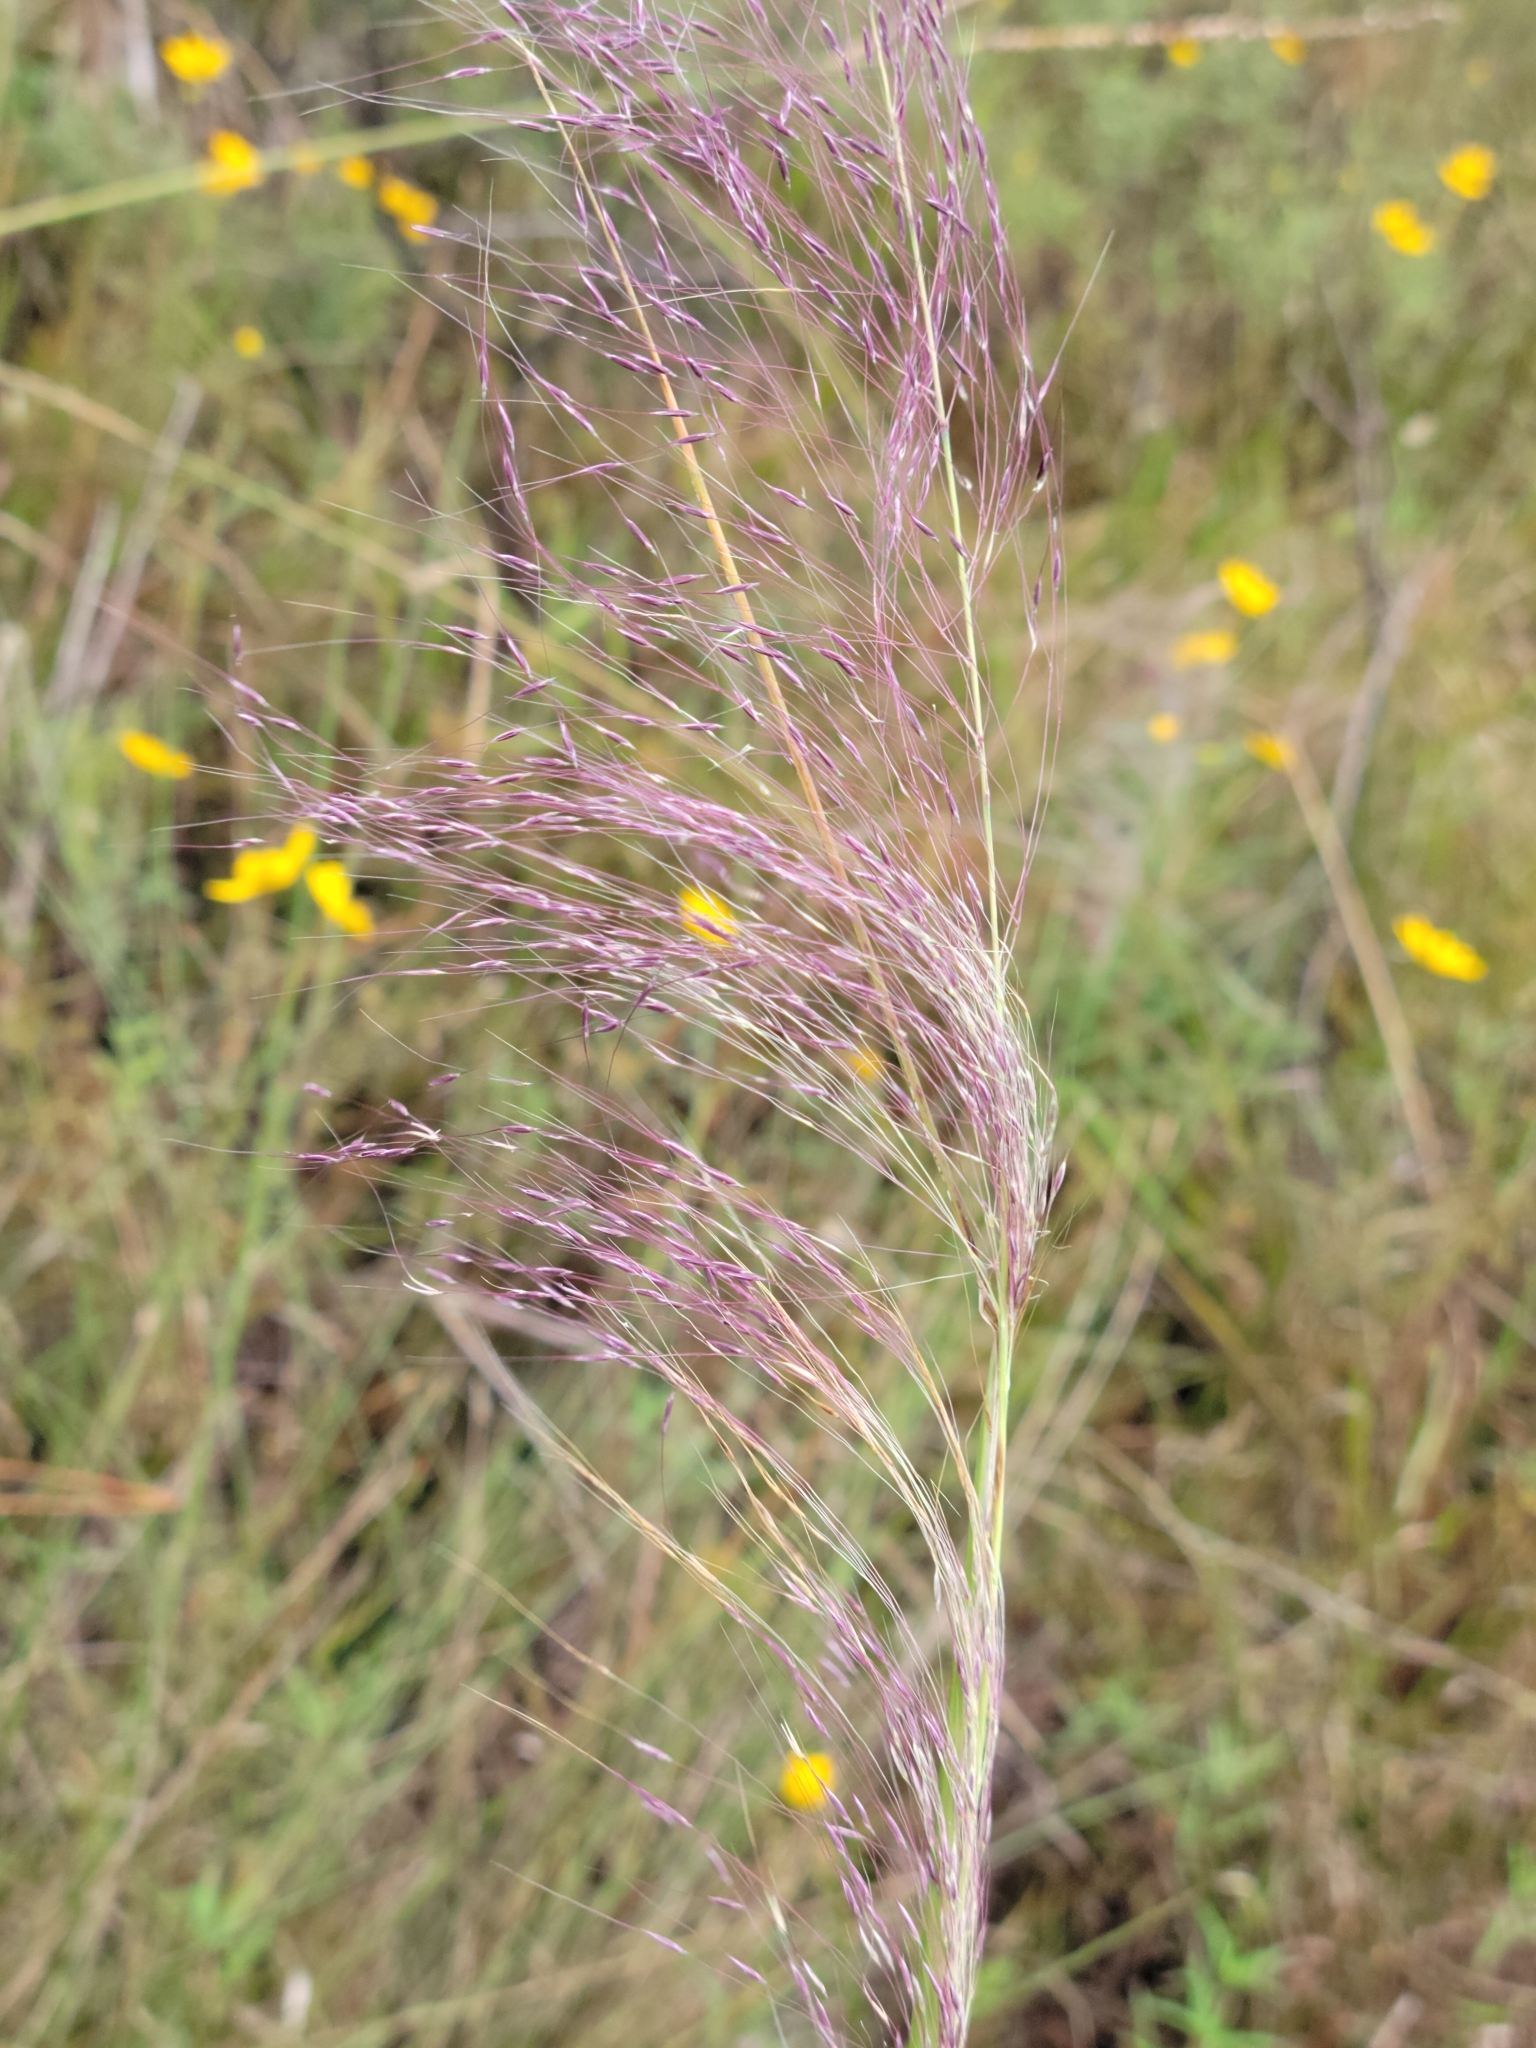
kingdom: Plantae
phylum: Tracheophyta
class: Liliopsida
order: Poales
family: Poaceae
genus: Muhlenbergia
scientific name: Muhlenbergia sericea
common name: Dune-hair grass
